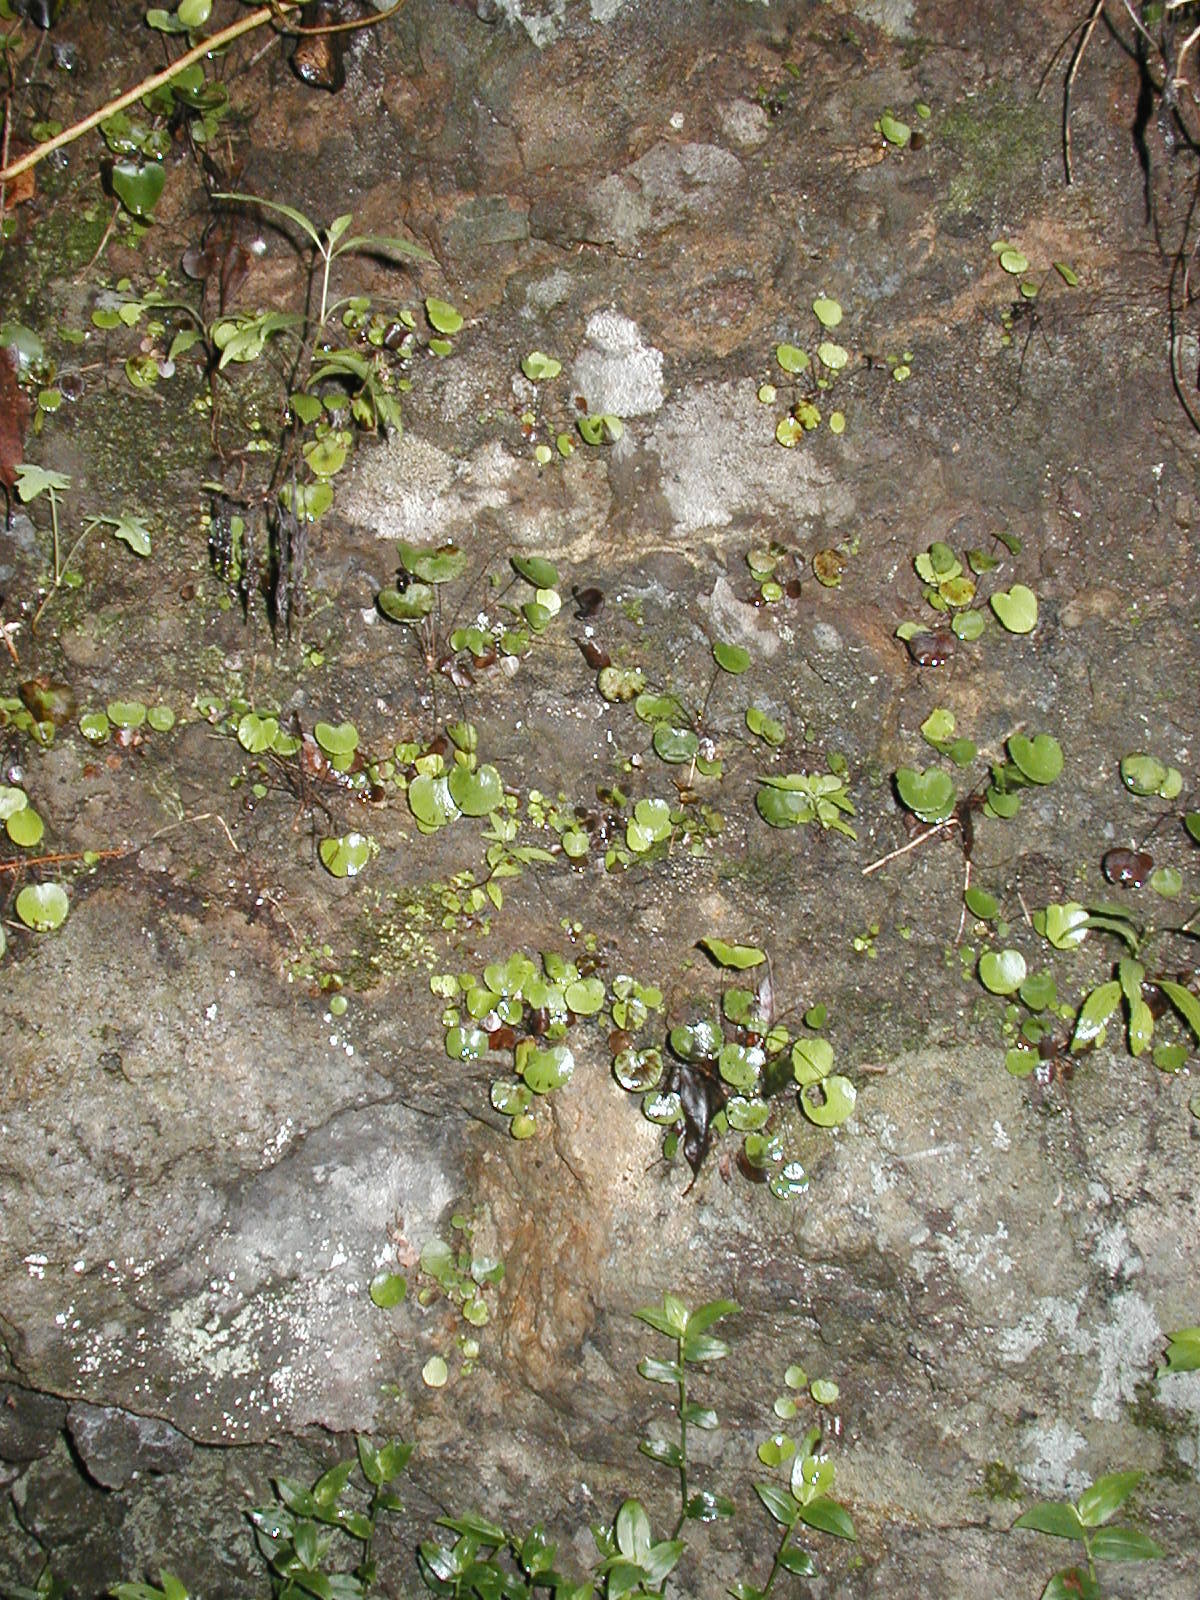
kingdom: Plantae
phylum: Tracheophyta
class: Polypodiopsida
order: Polypodiales
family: Pteridaceae
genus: Adiantum
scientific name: Adiantum reniforme
